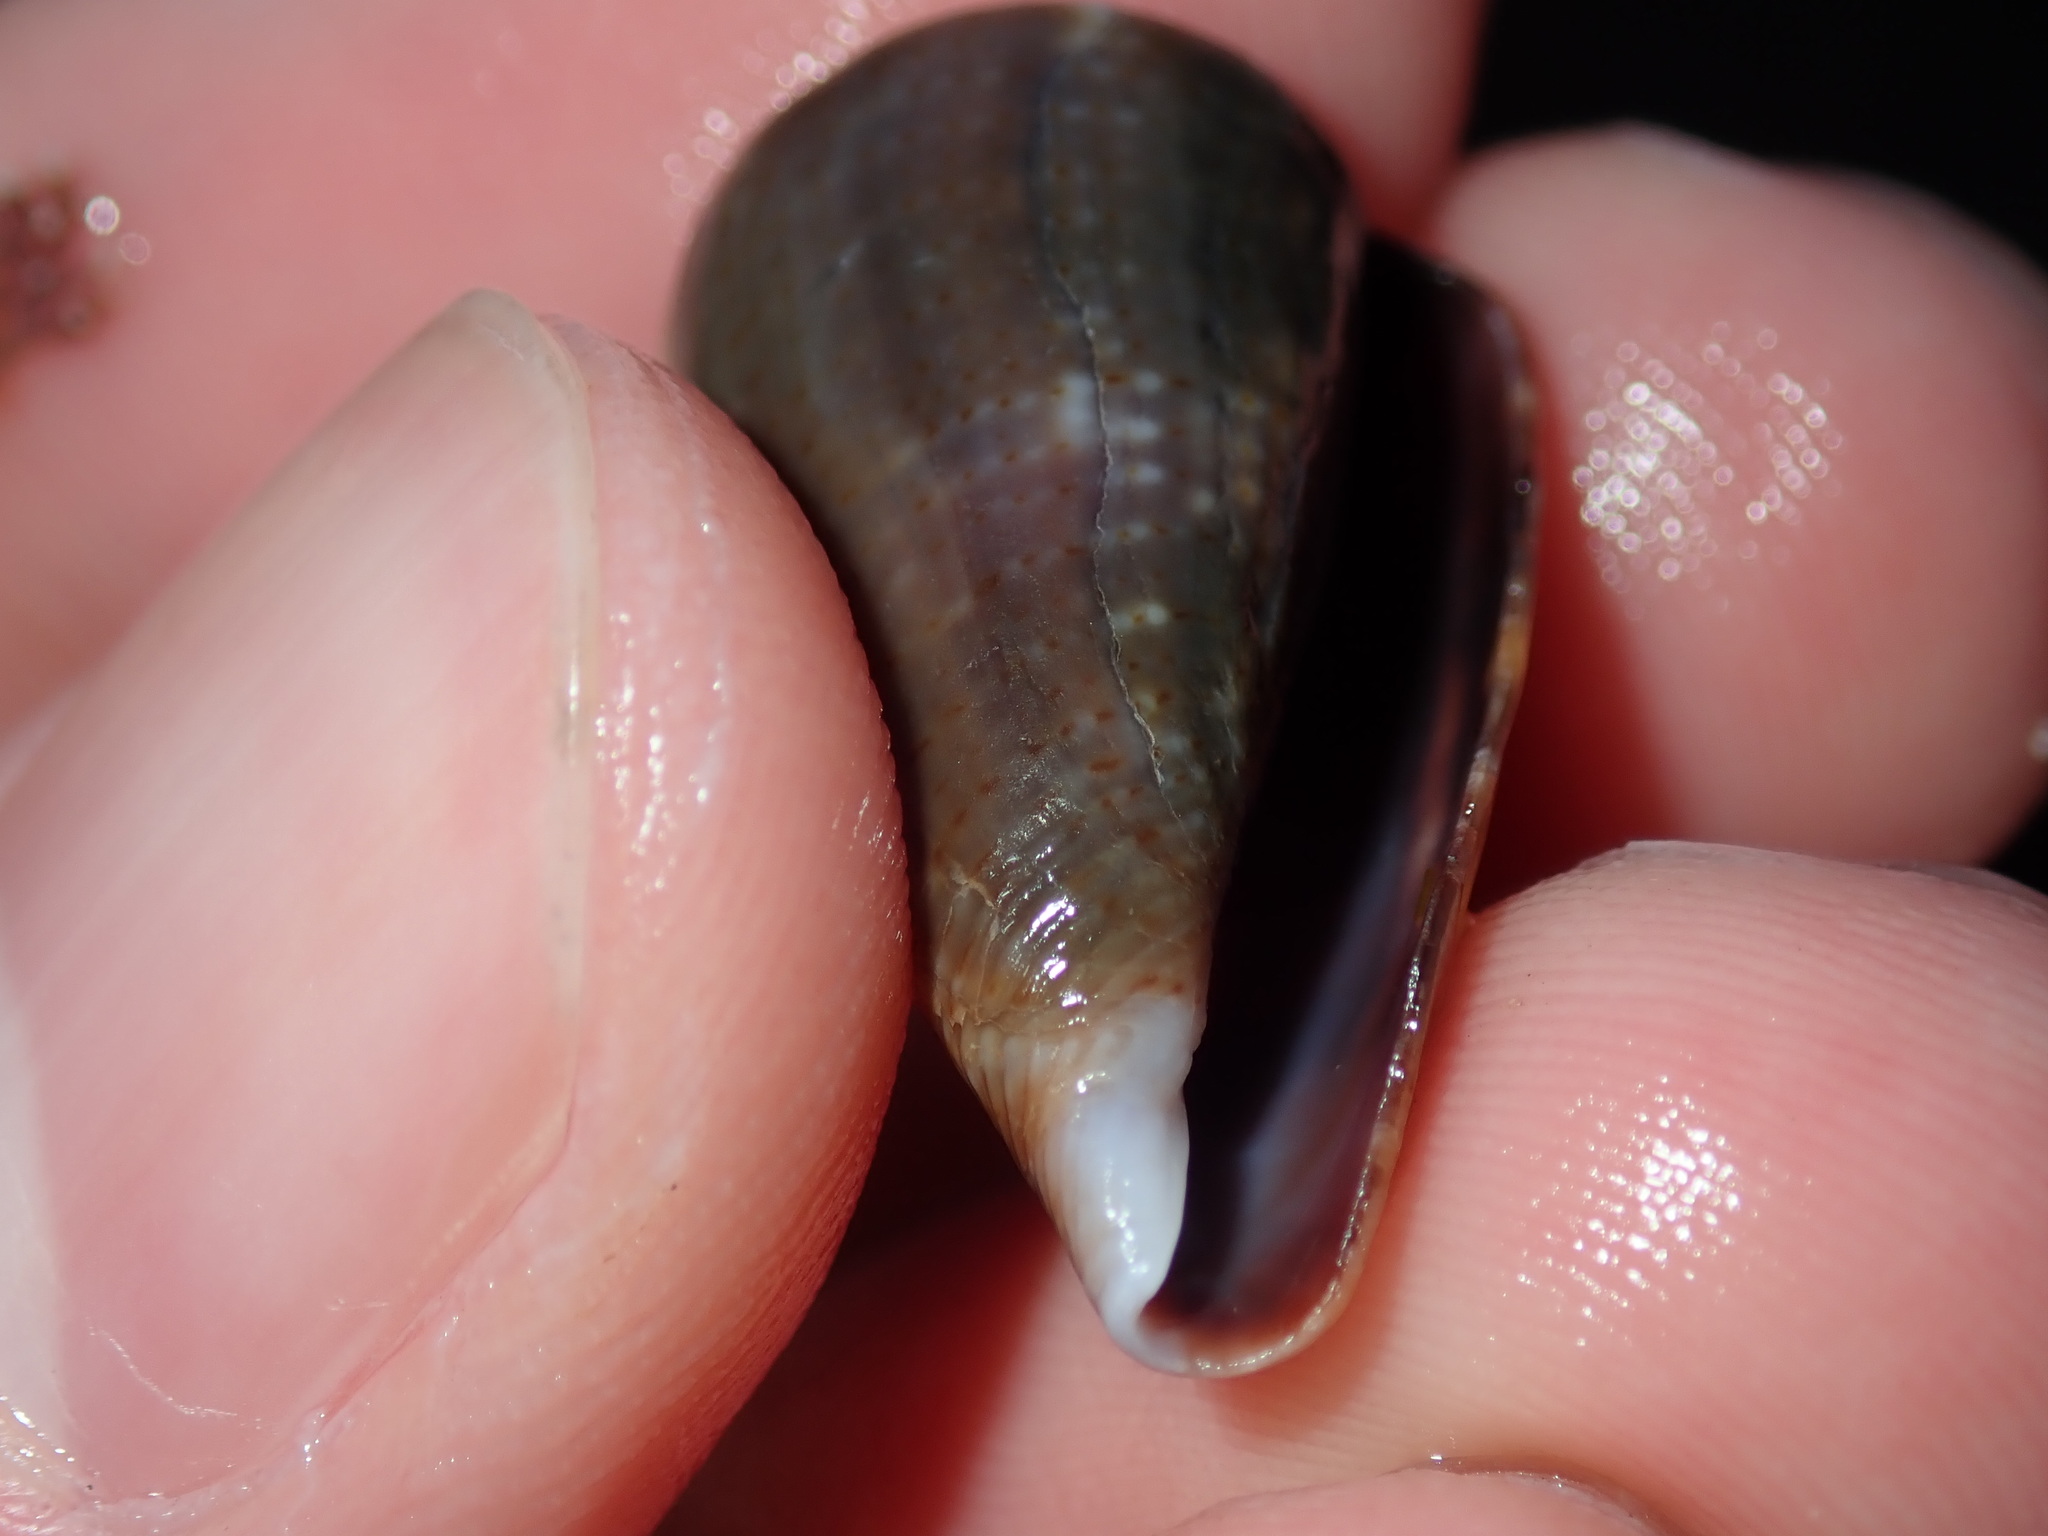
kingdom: Animalia
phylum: Mollusca
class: Gastropoda
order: Neogastropoda
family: Conidae
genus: Conus
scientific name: Conus papilliferus
